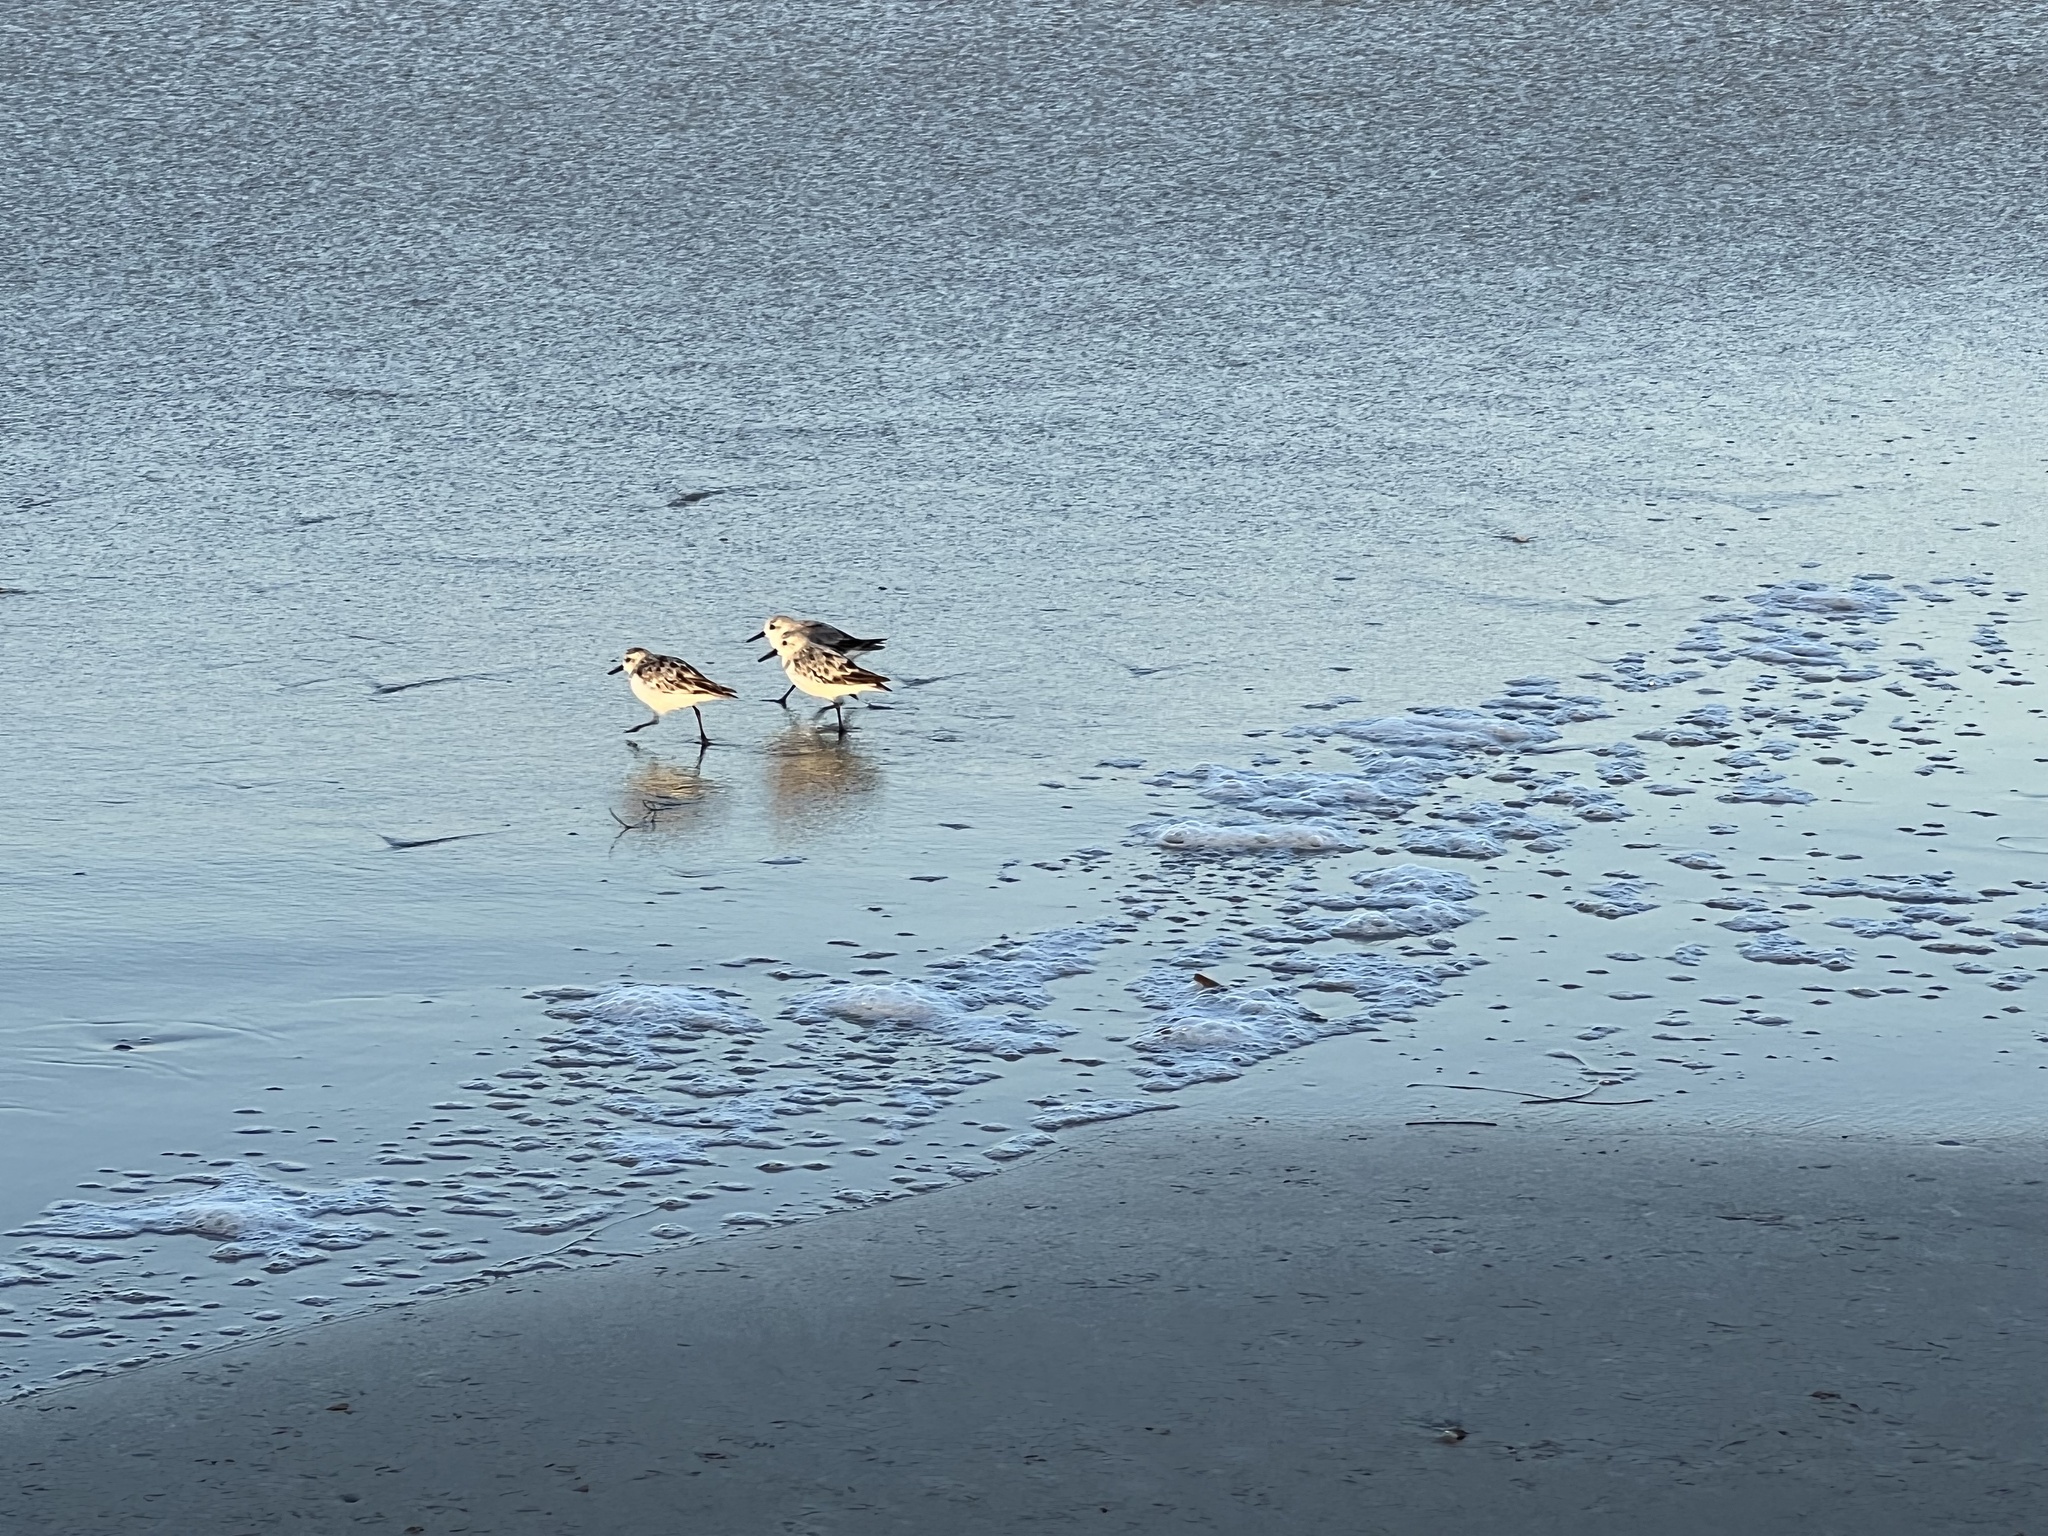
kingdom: Animalia
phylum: Chordata
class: Aves
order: Charadriiformes
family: Scolopacidae
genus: Calidris
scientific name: Calidris alba
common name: Sanderling
